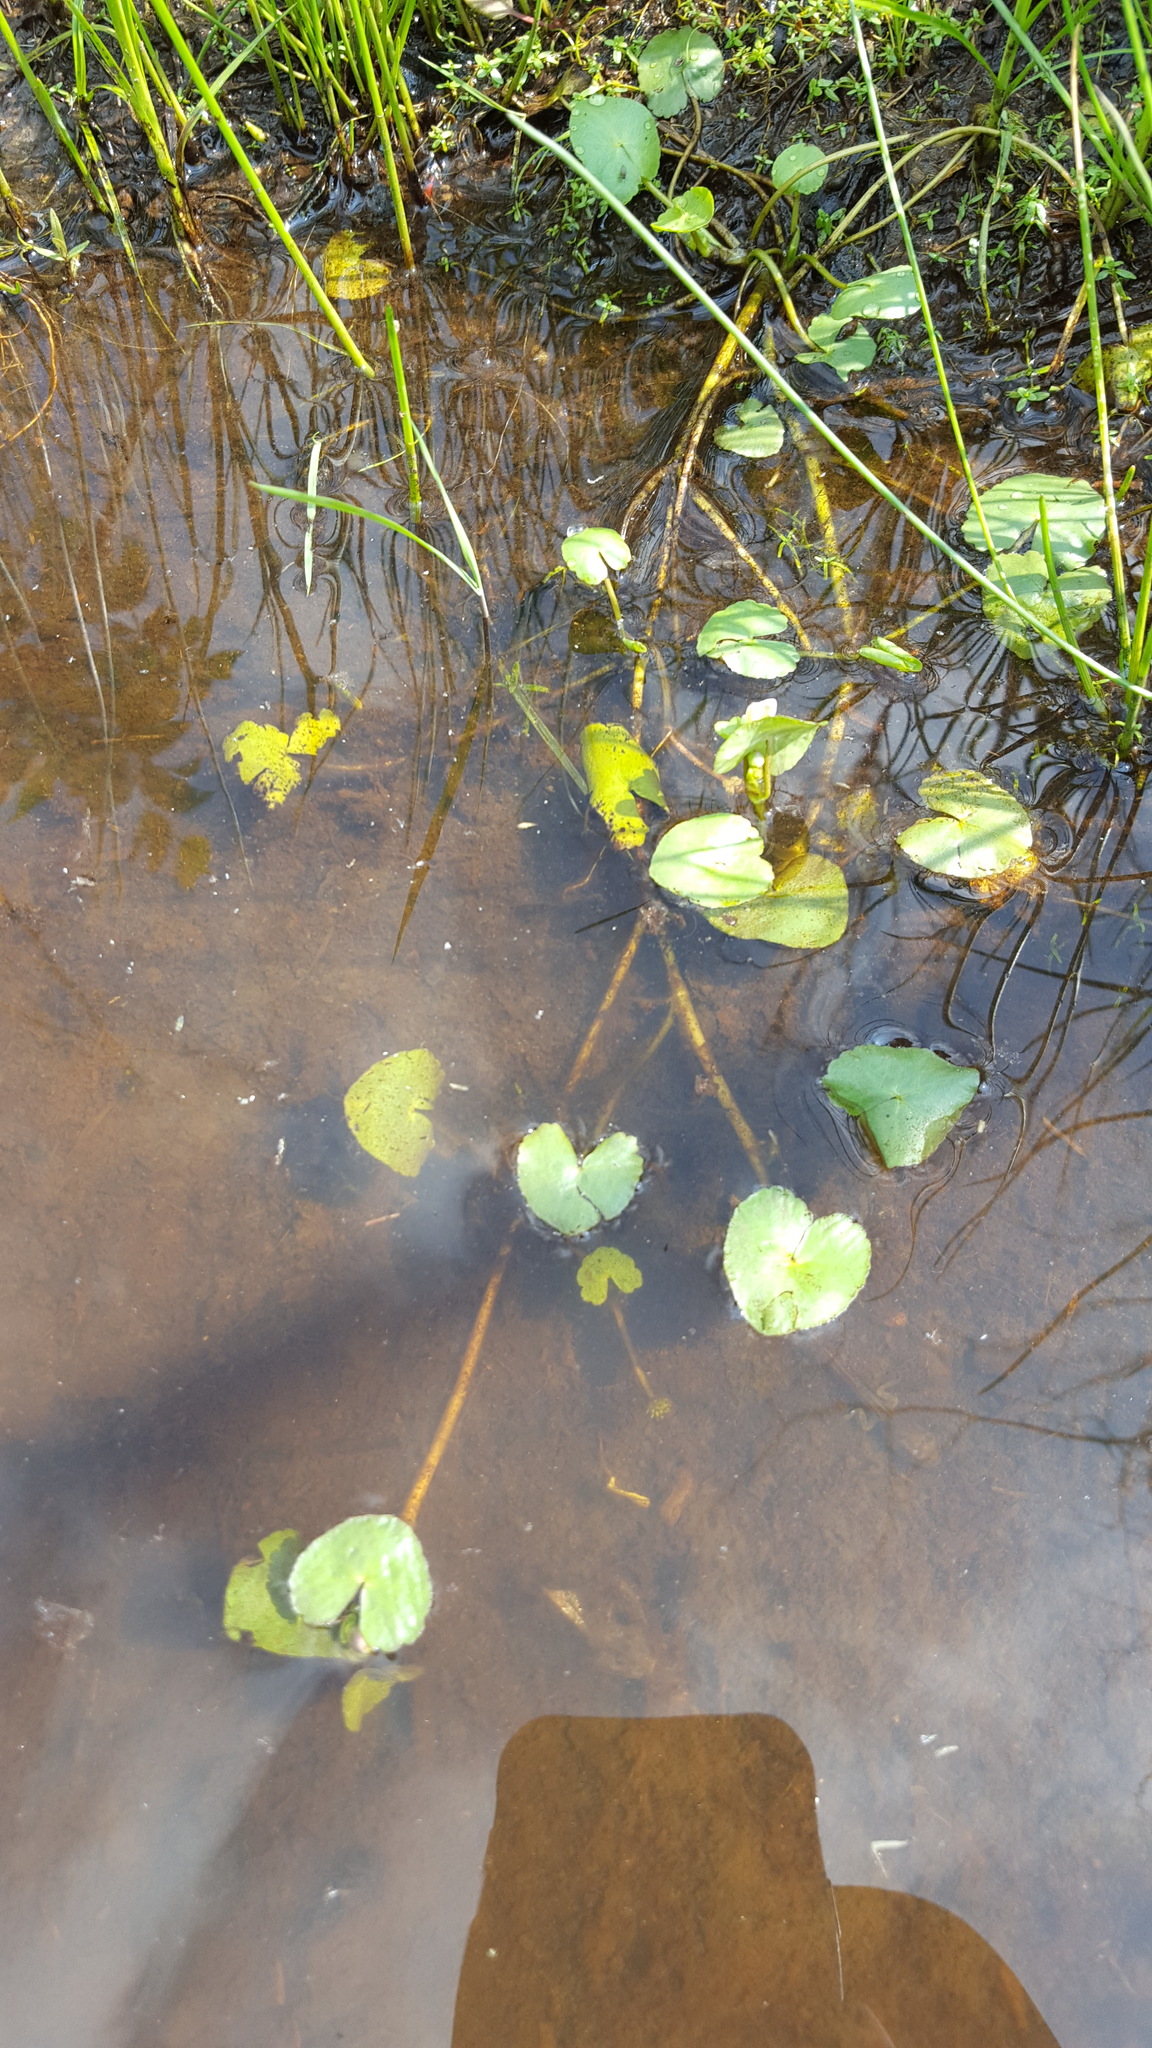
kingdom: Plantae
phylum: Tracheophyta
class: Magnoliopsida
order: Ranunculales
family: Ranunculaceae
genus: Caltha
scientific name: Caltha natans
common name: Floating marsh marigold
